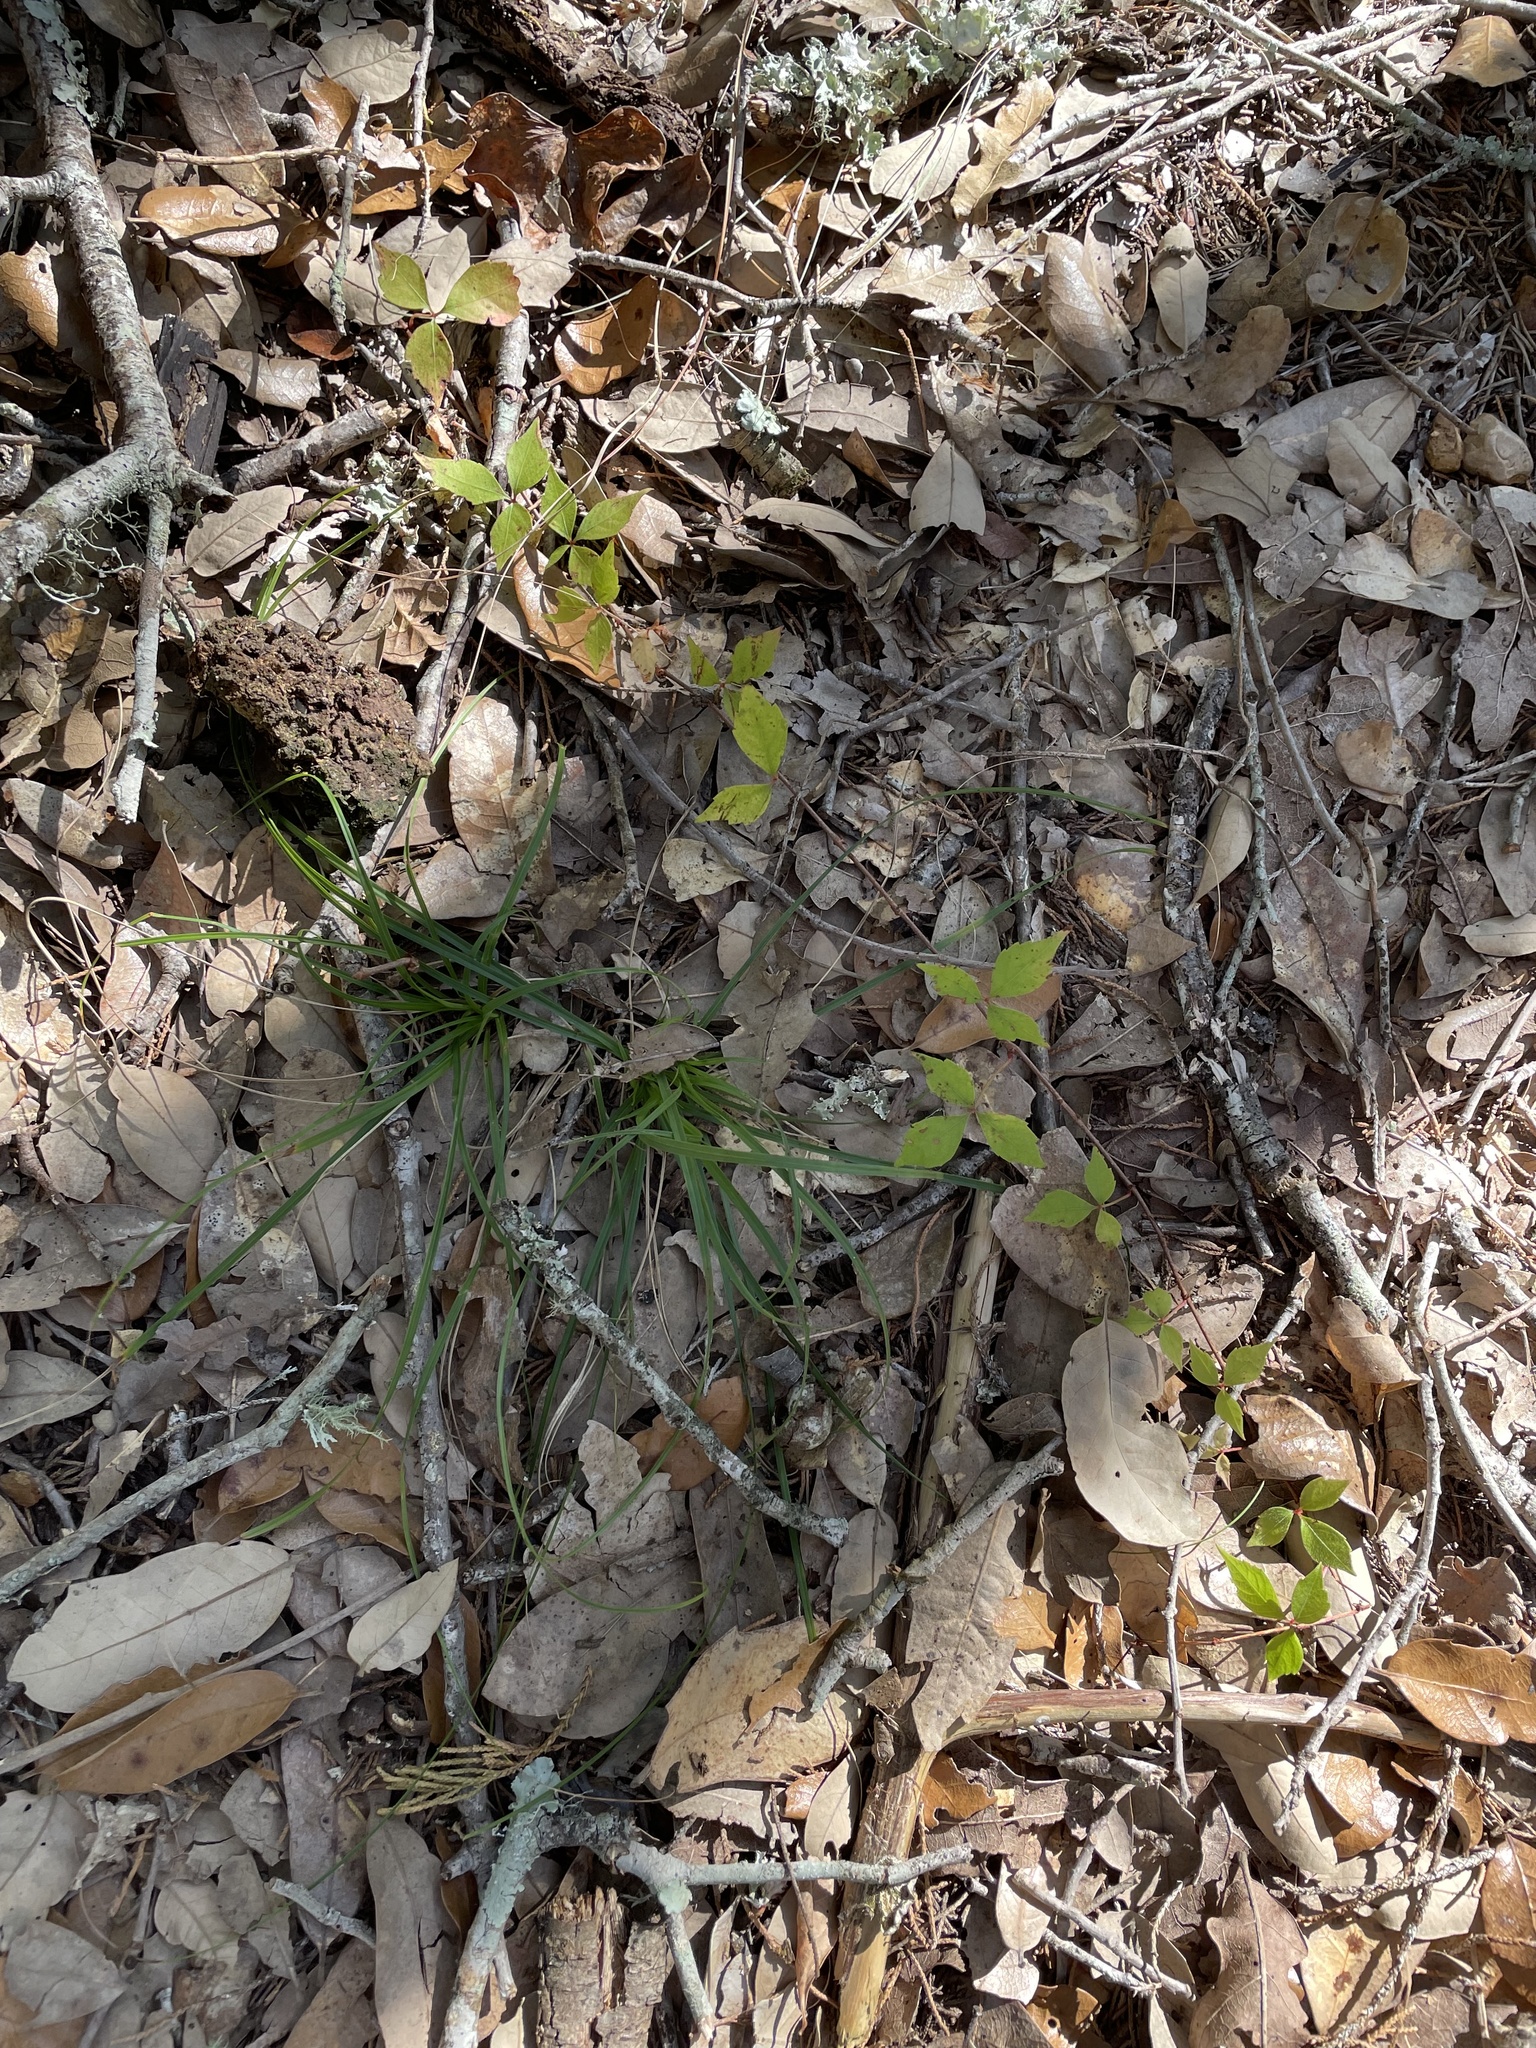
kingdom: Plantae
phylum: Tracheophyta
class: Magnoliopsida
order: Vitales
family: Vitaceae
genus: Parthenocissus
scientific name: Parthenocissus quinquefolia
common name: Virginia-creeper
